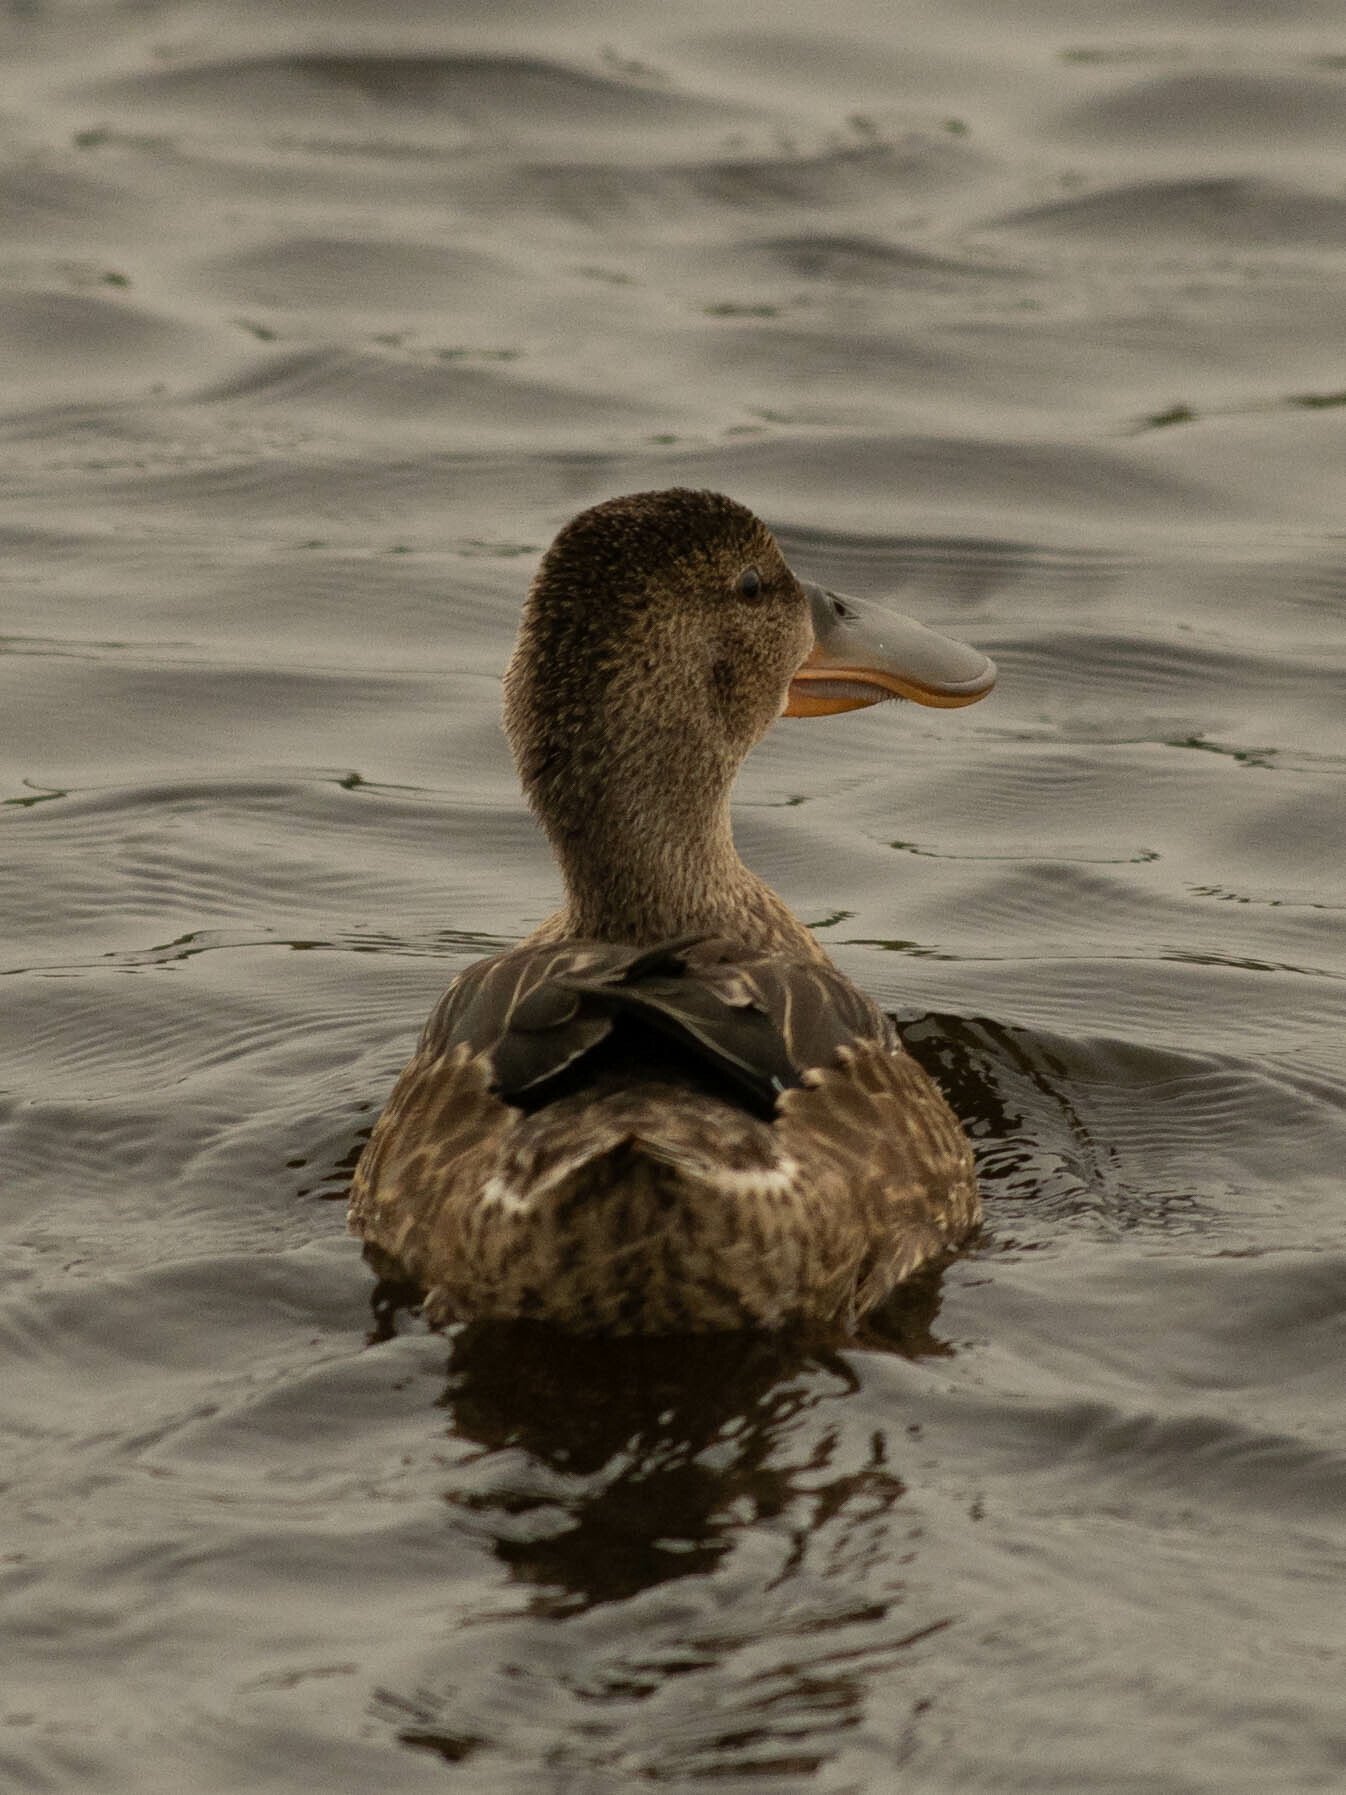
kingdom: Animalia
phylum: Chordata
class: Aves
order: Anseriformes
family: Anatidae
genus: Spatula
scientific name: Spatula clypeata
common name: Northern shoveler
